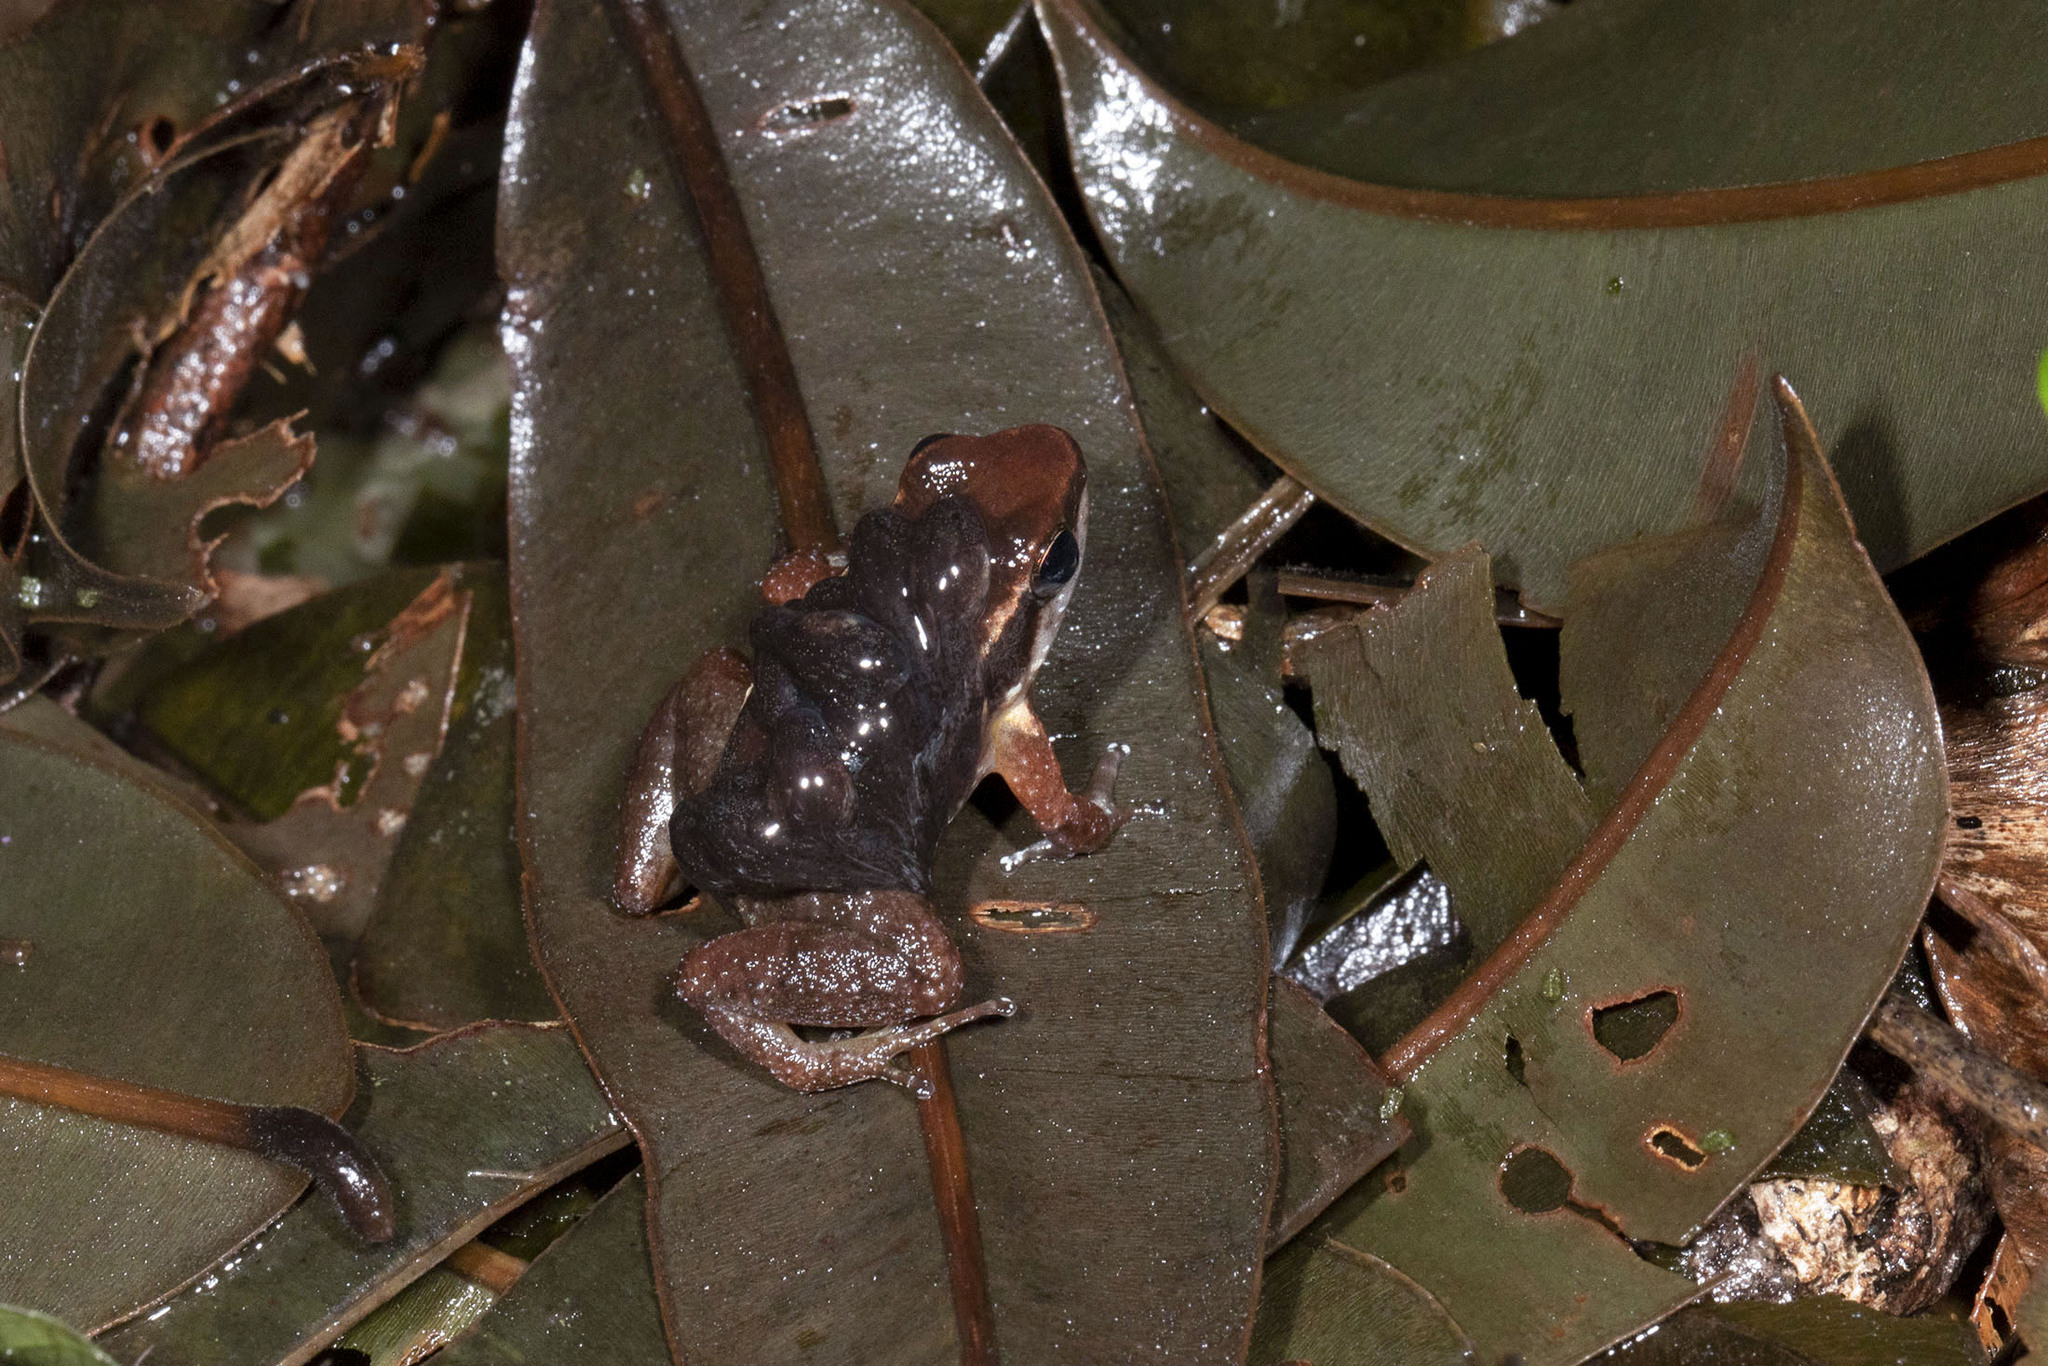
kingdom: Animalia
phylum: Chordata
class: Amphibia
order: Anura
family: Aromobatidae
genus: Anomaloglossus
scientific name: Anomaloglossus baeobatrachus
